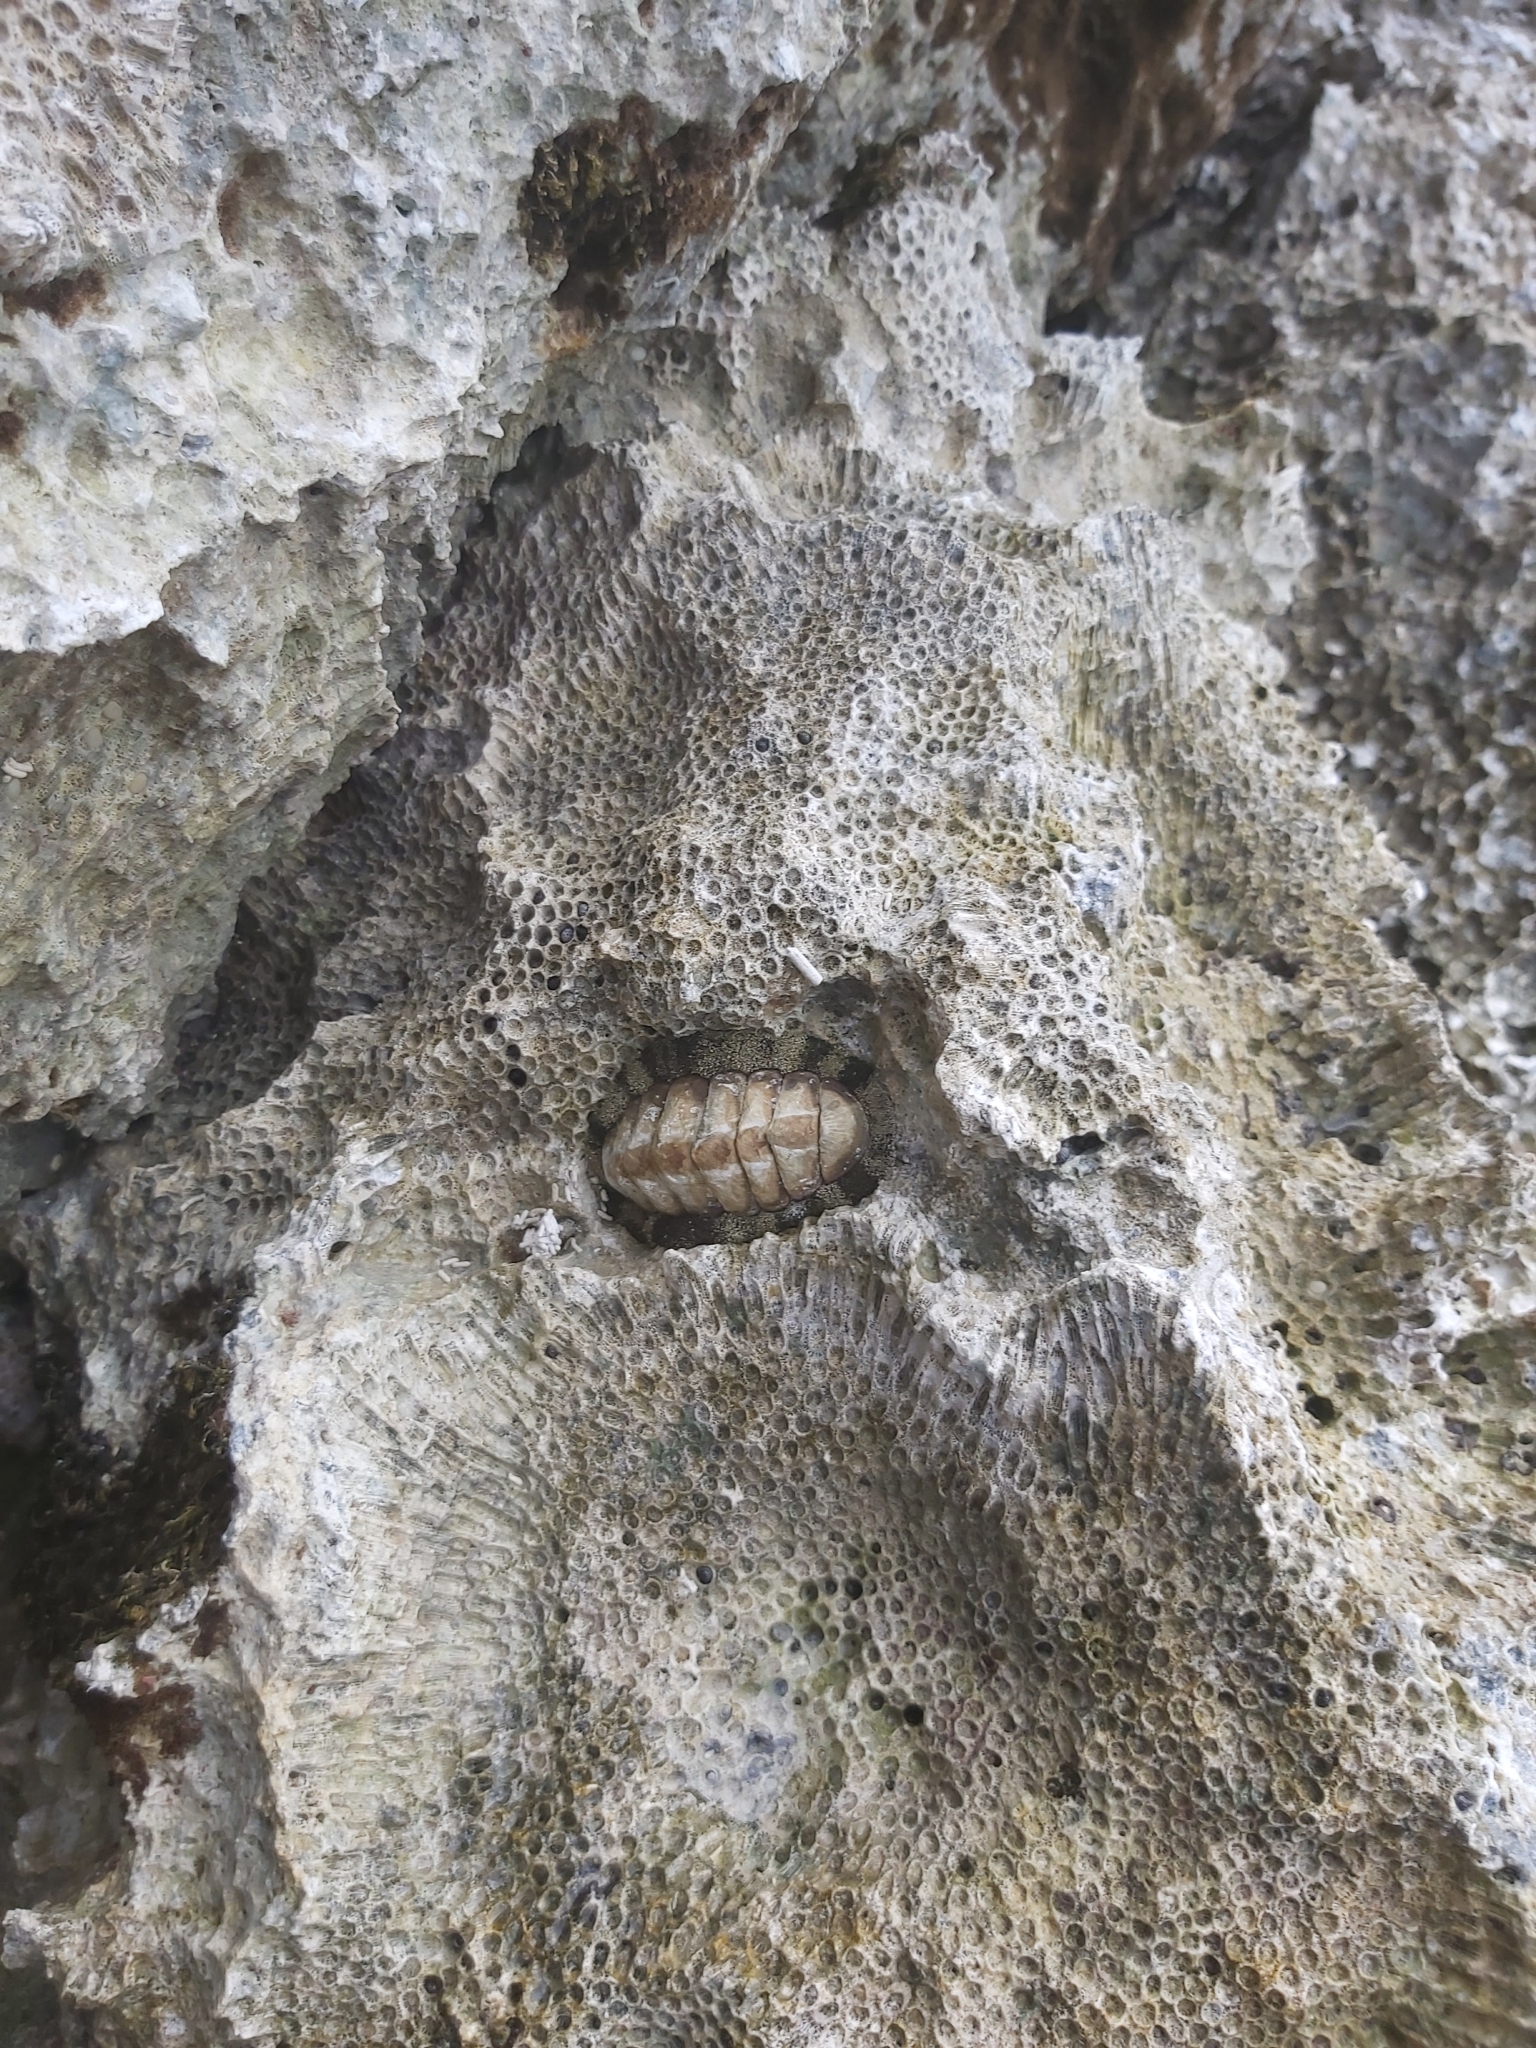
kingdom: Animalia
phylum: Mollusca
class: Polyplacophora
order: Chitonida
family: Chitonidae
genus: Acanthopleura
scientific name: Acanthopleura granulata
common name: West indian fuzzy chiton
